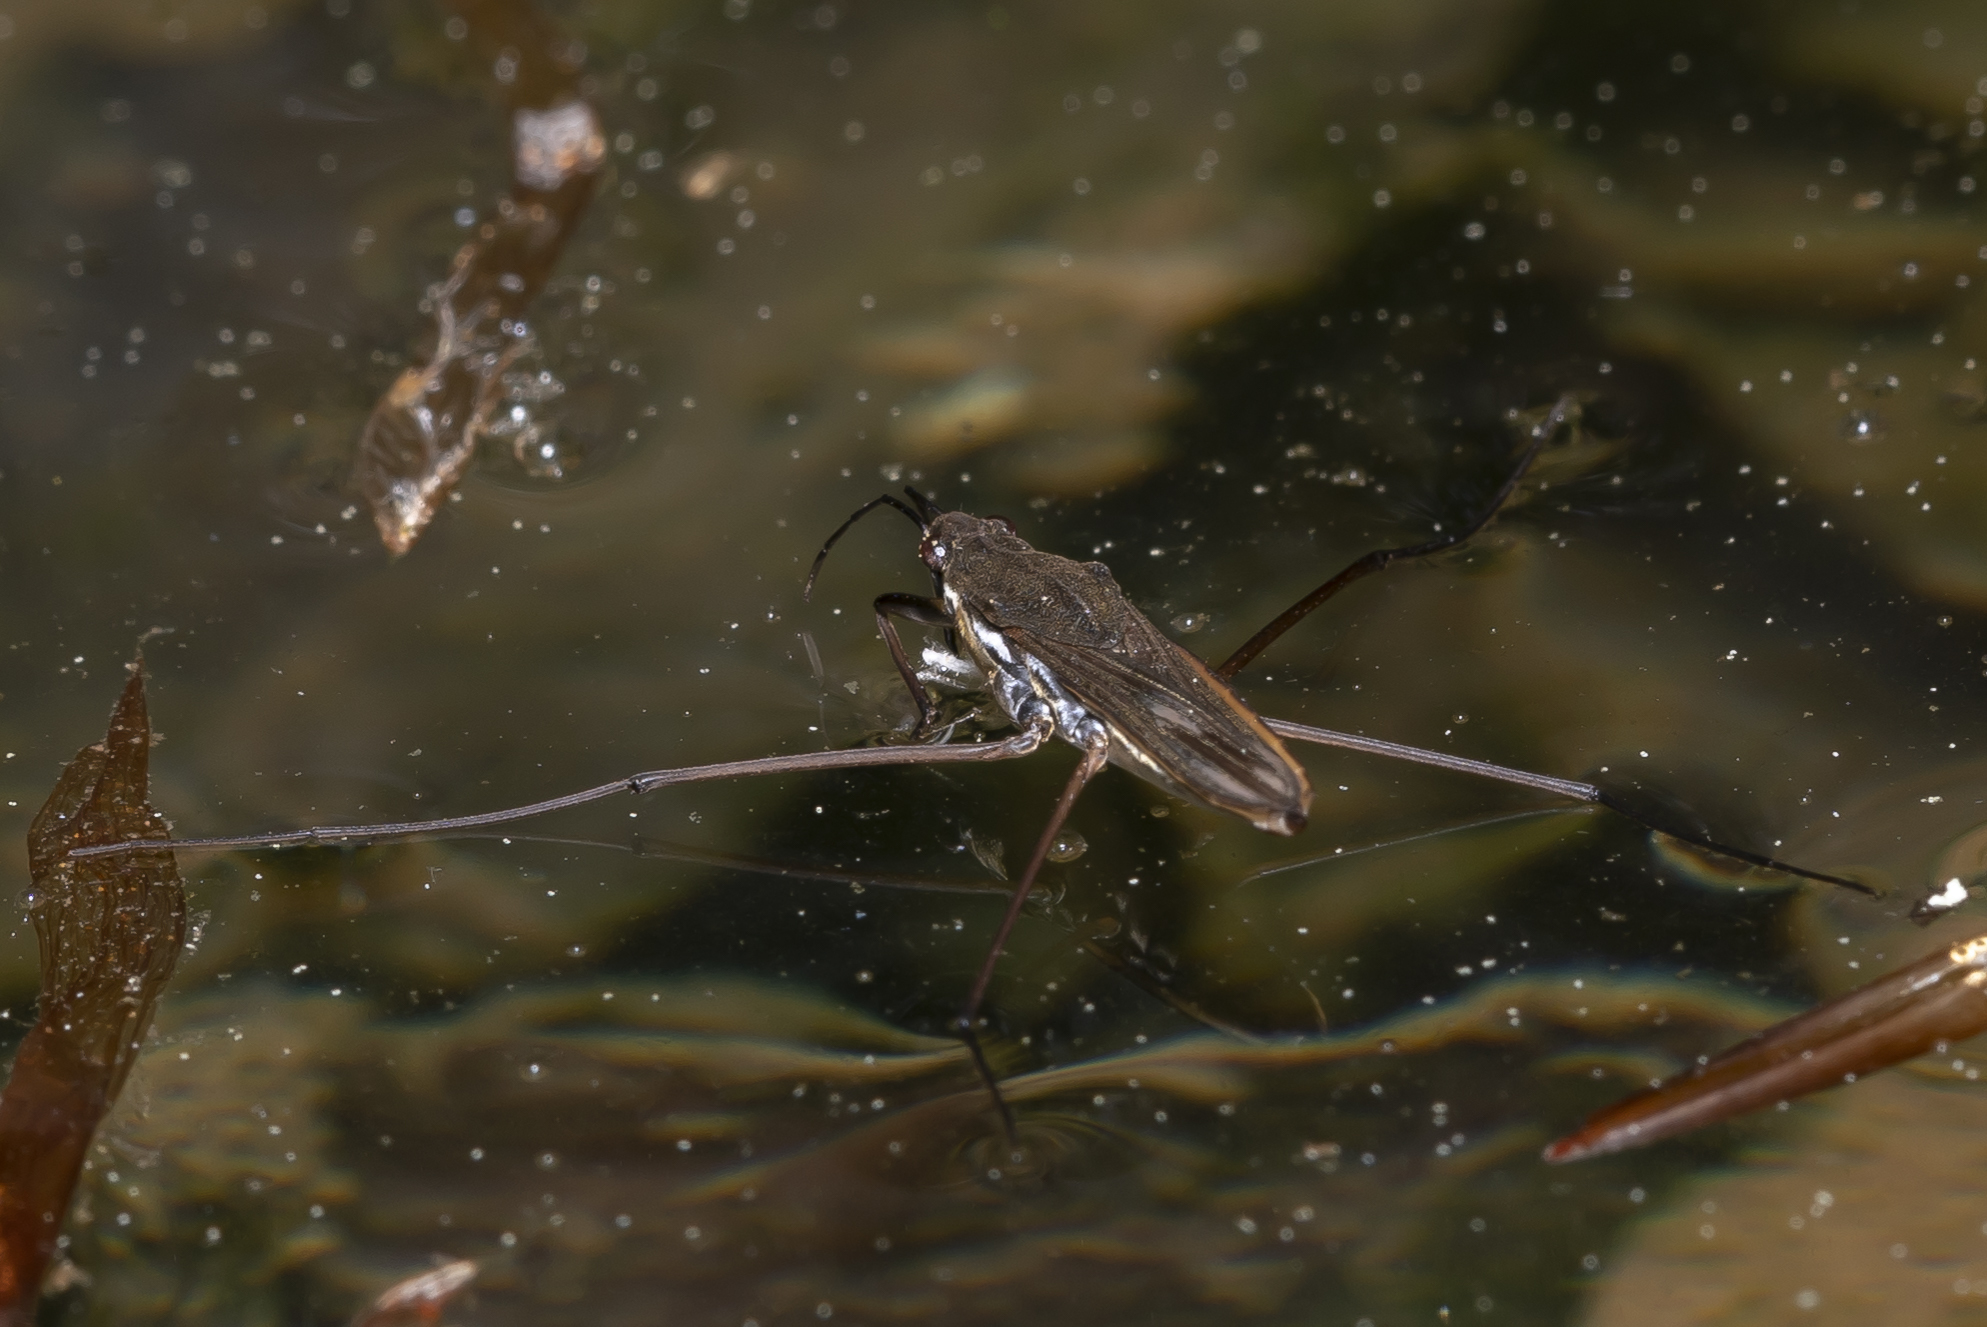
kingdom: Animalia
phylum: Arthropoda
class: Insecta
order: Hemiptera
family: Gerridae
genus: Gerris
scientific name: Gerris lacustris
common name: Common pondskater
